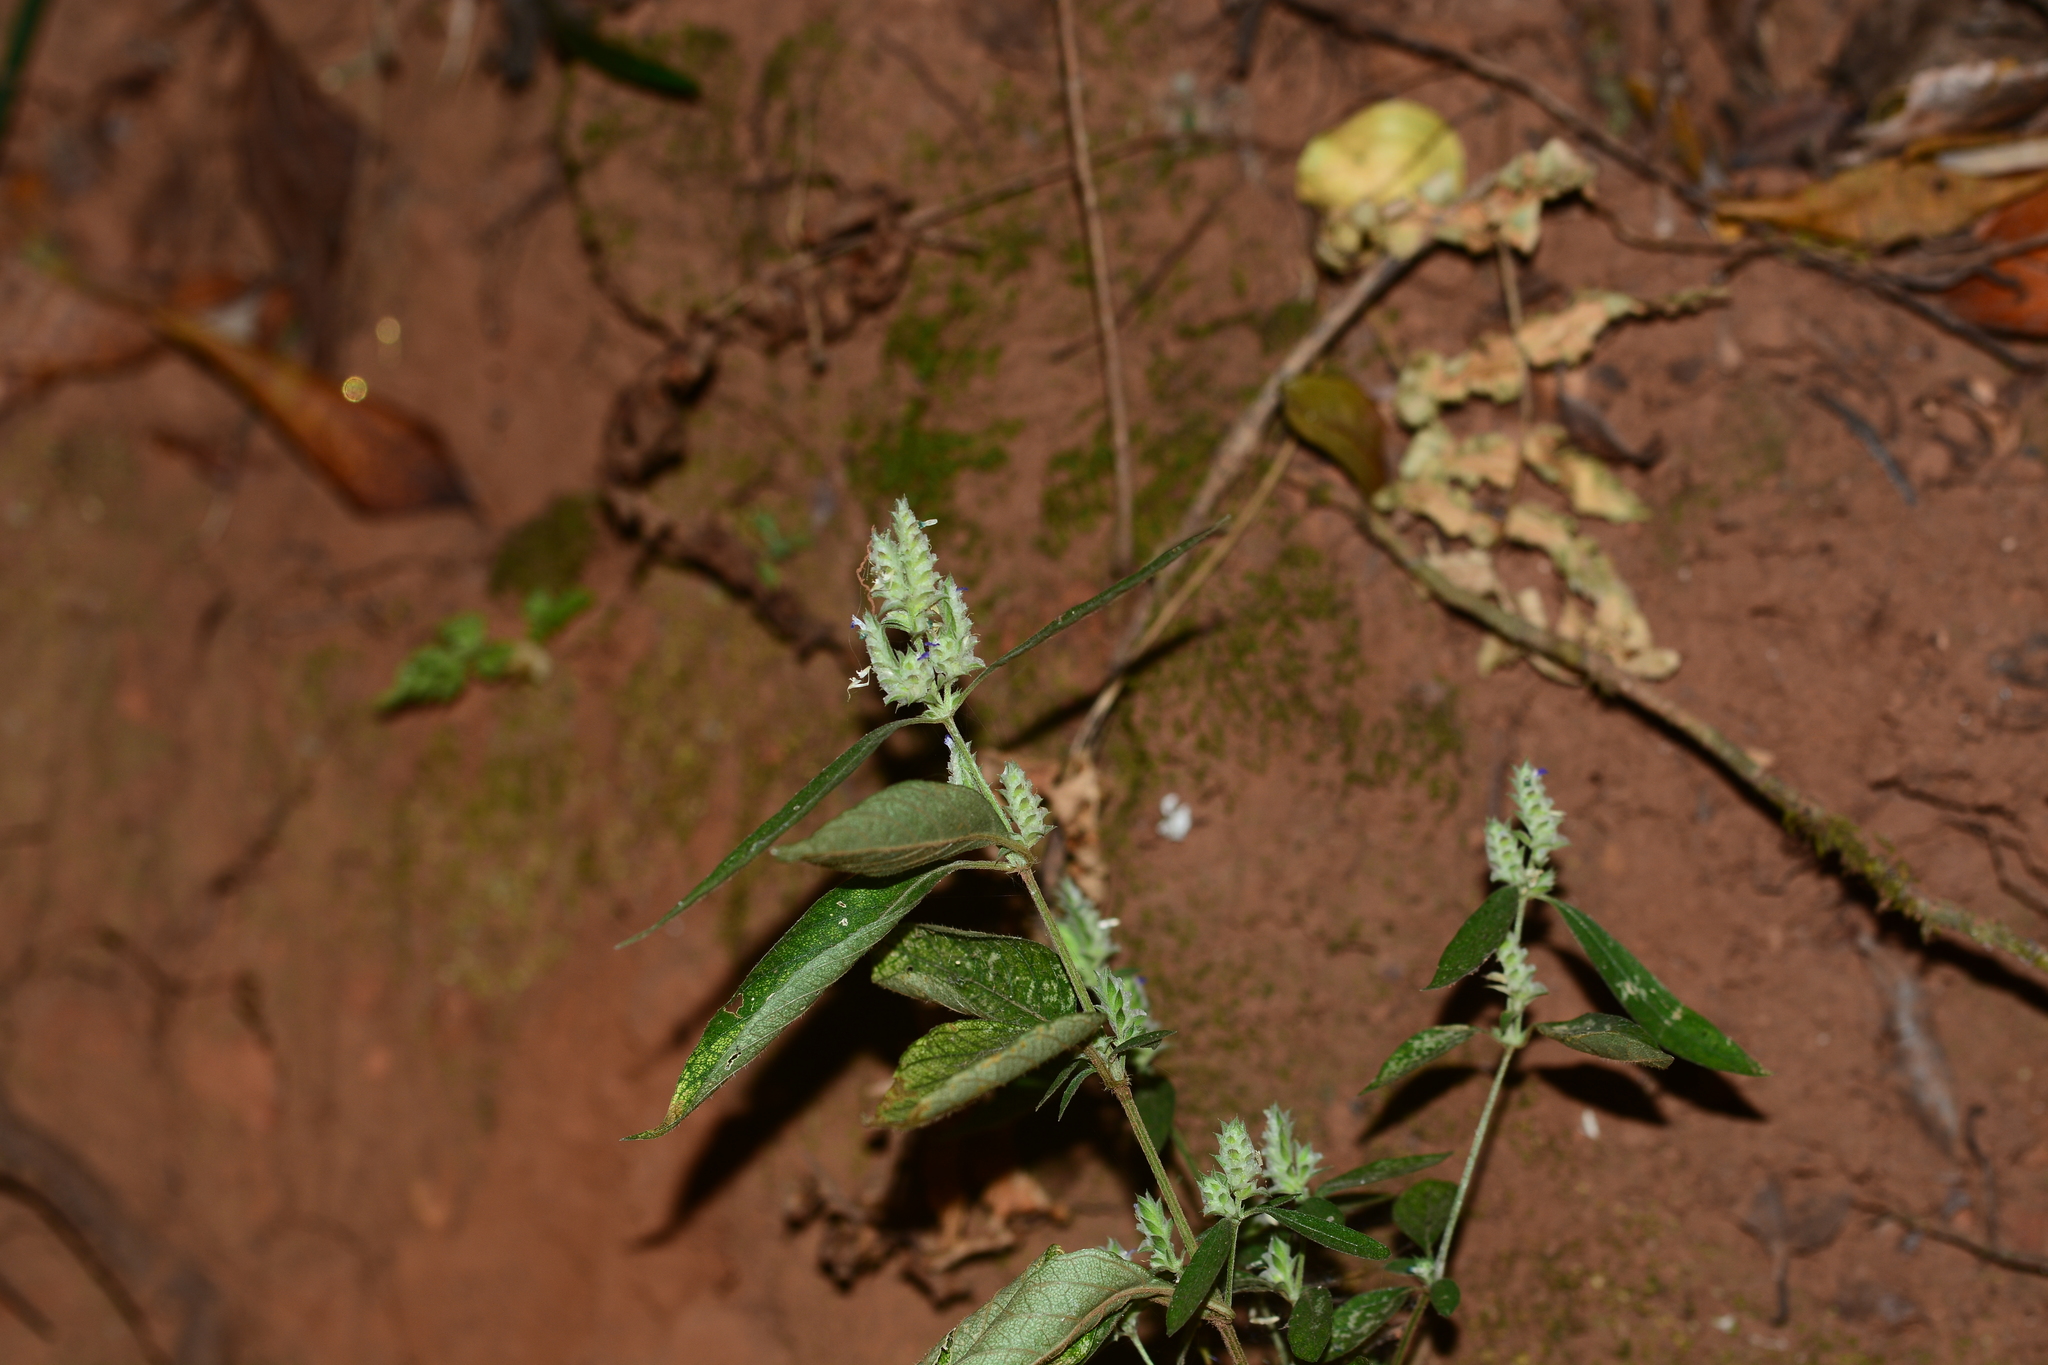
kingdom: Plantae
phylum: Tracheophyta
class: Magnoliopsida
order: Lamiales
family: Acanthaceae
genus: Rungia
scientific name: Rungia pectinata
